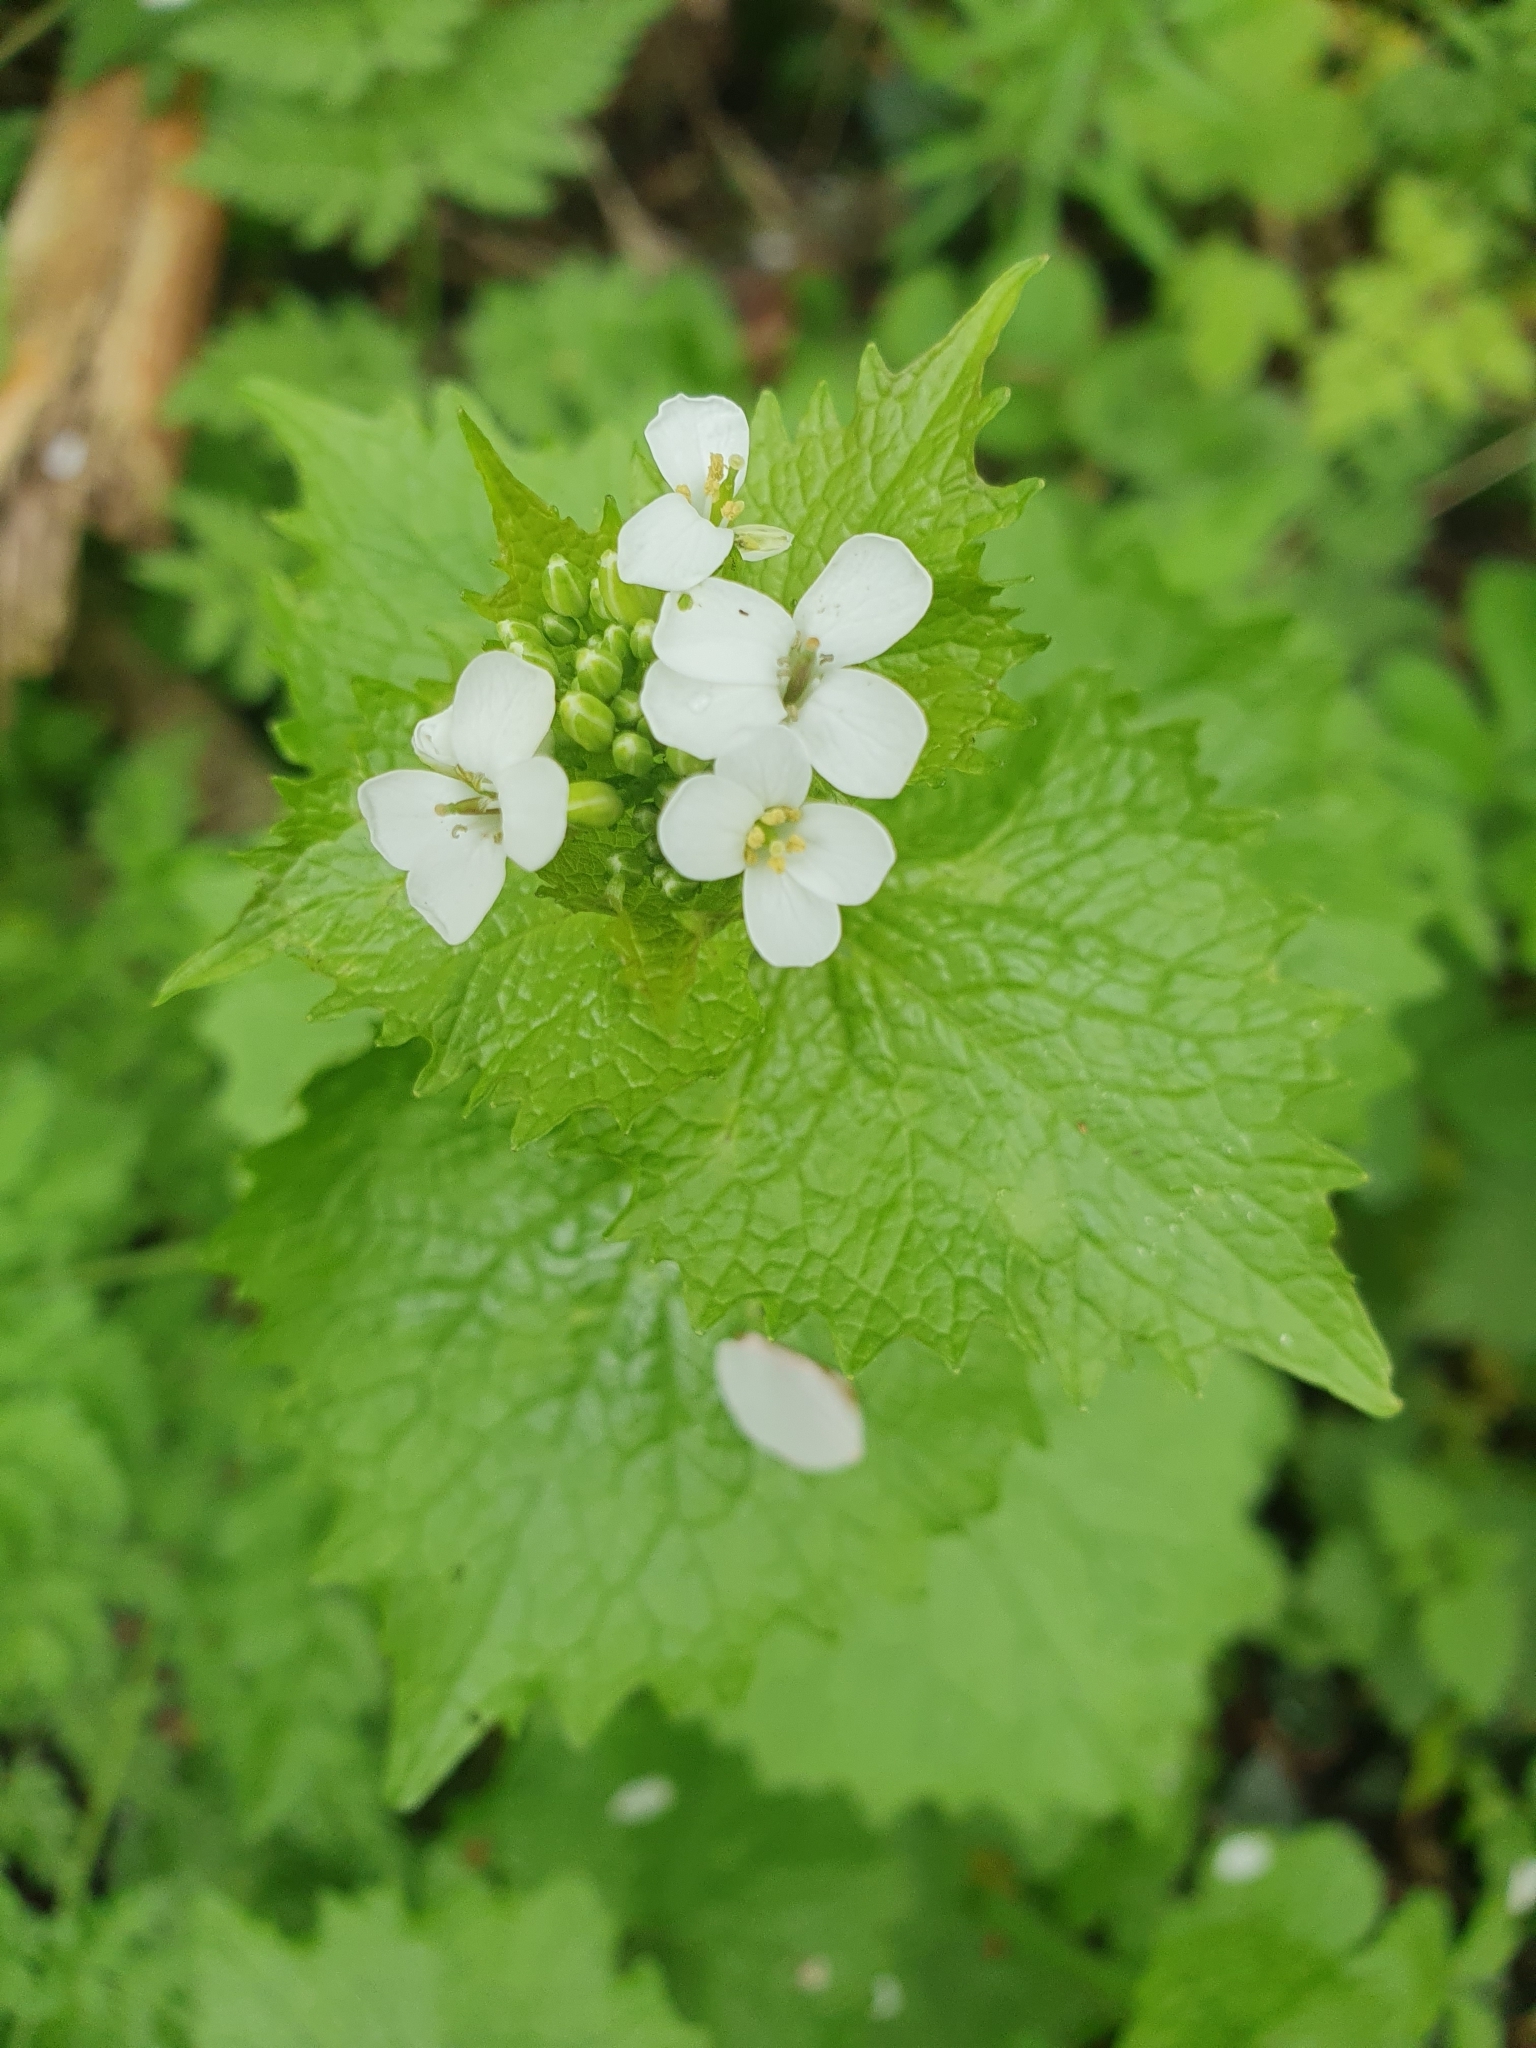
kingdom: Plantae
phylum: Tracheophyta
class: Magnoliopsida
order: Brassicales
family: Brassicaceae
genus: Alliaria
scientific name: Alliaria petiolata
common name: Garlic mustard
